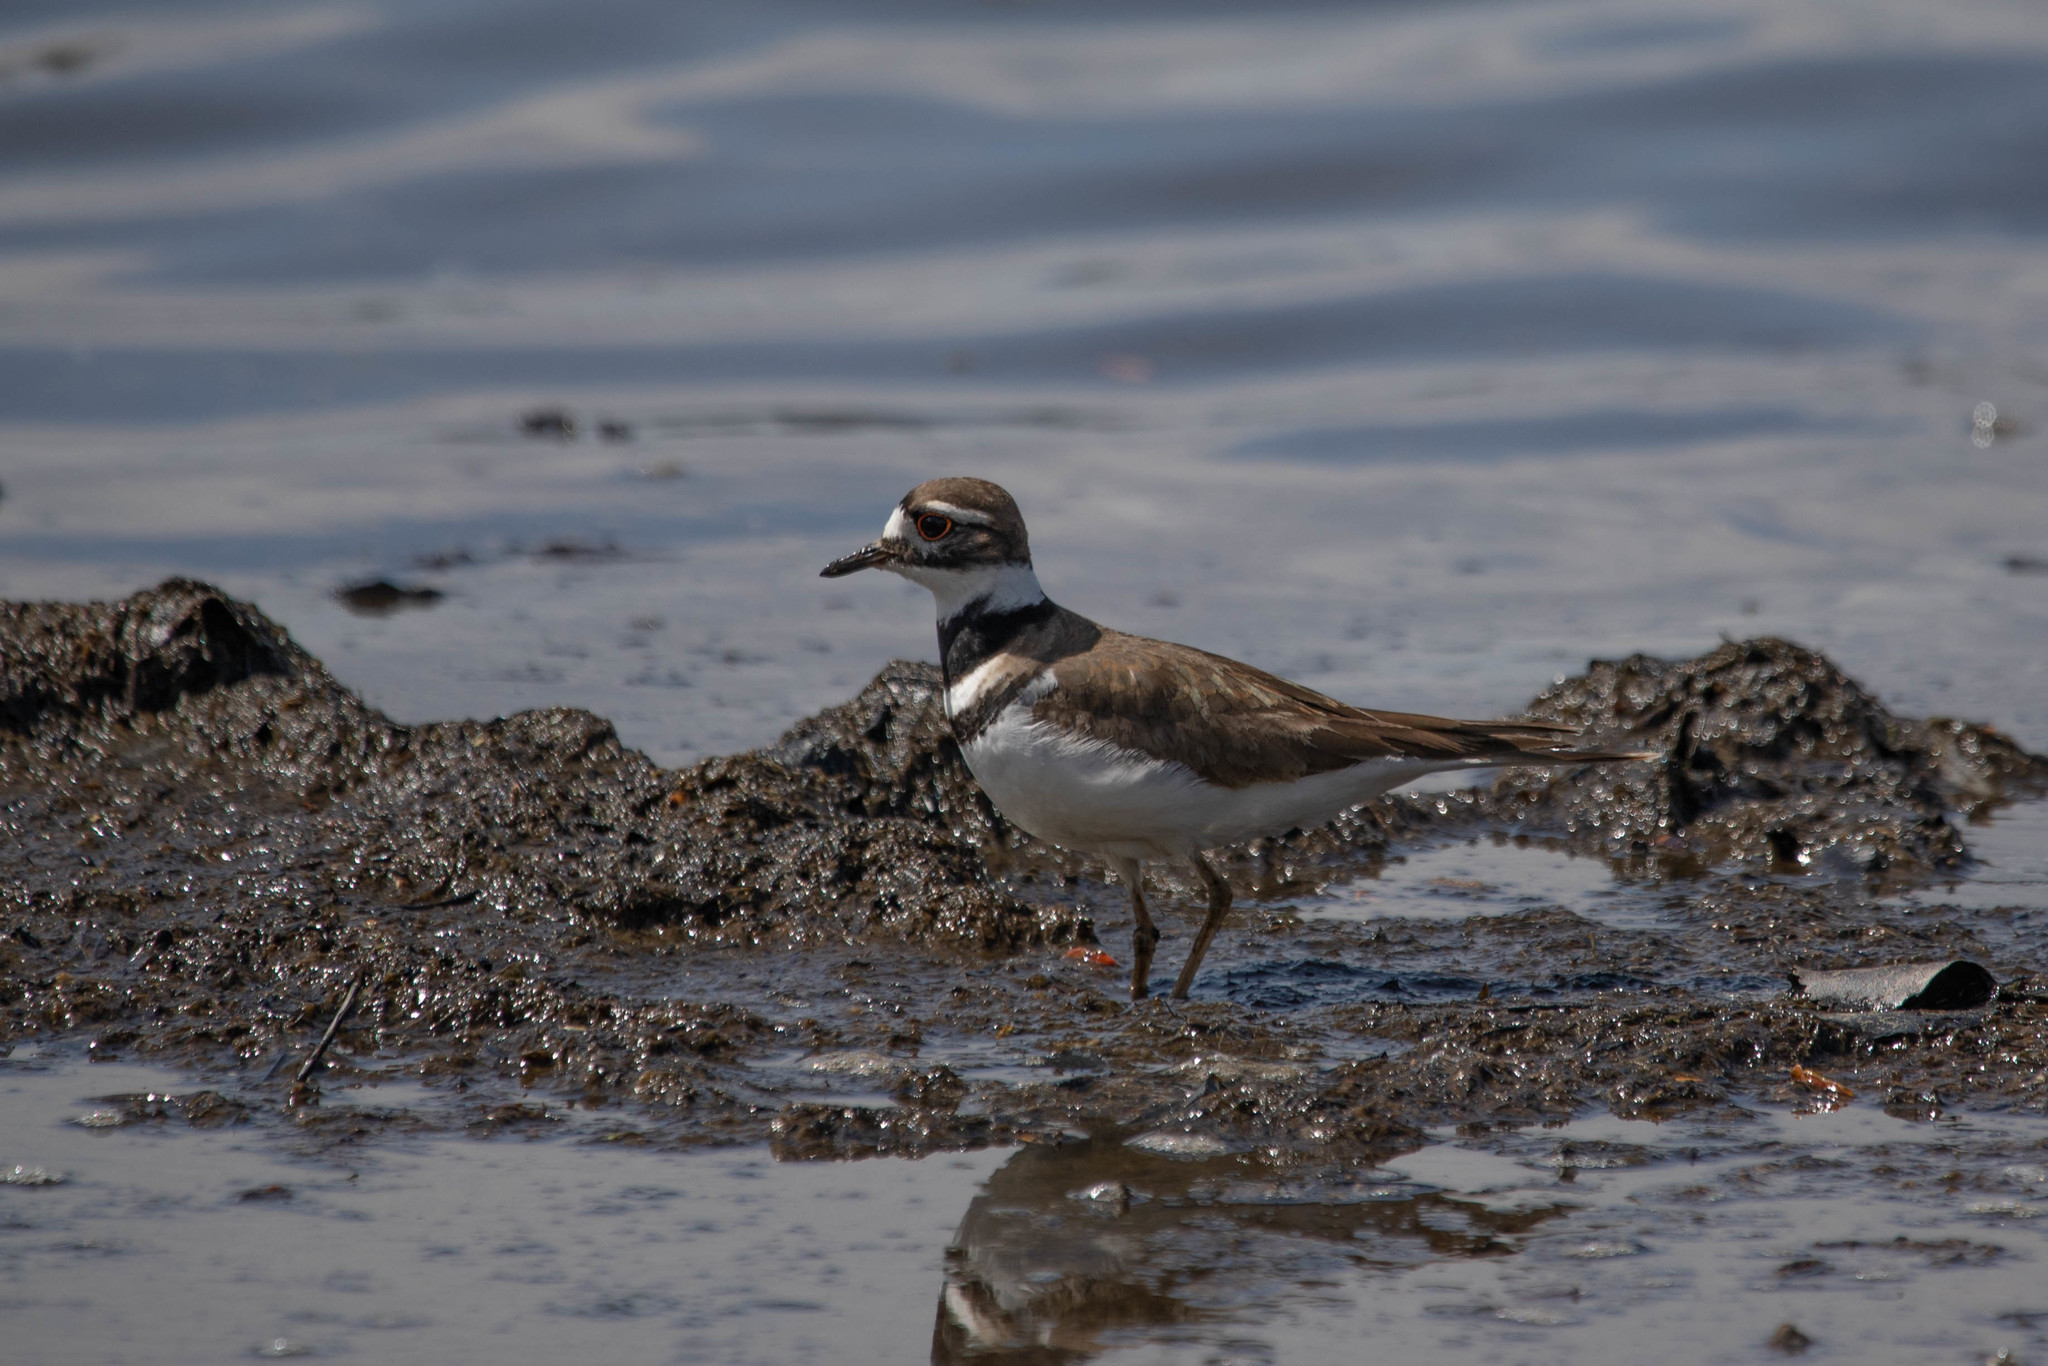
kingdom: Animalia
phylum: Chordata
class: Aves
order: Charadriiformes
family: Charadriidae
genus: Charadrius
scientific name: Charadrius vociferus
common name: Killdeer
